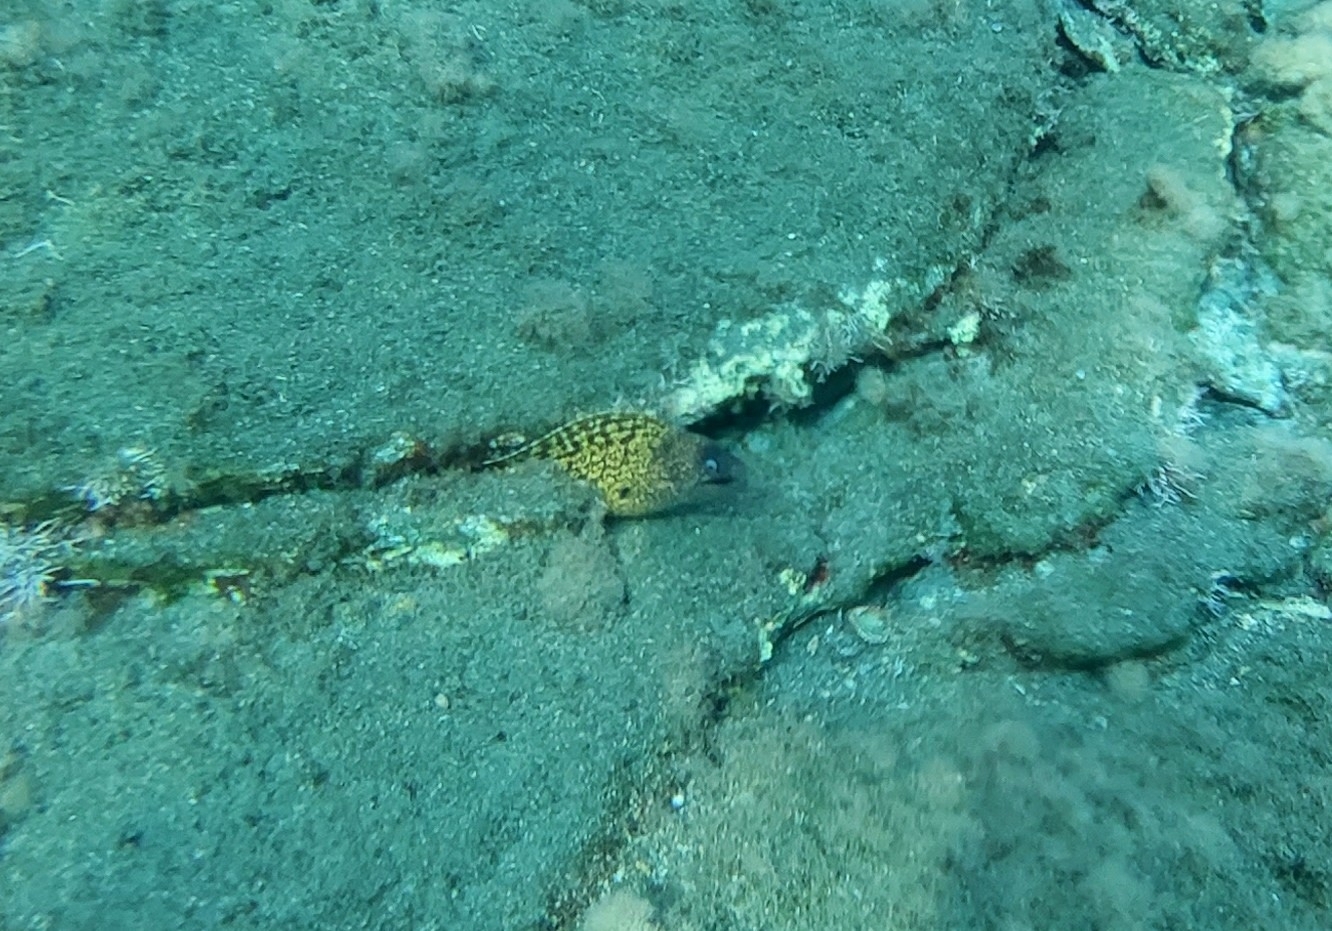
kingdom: Animalia
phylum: Chordata
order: Anguilliformes
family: Muraenidae
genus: Muraena
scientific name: Muraena helena
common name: Mediterranean moray
